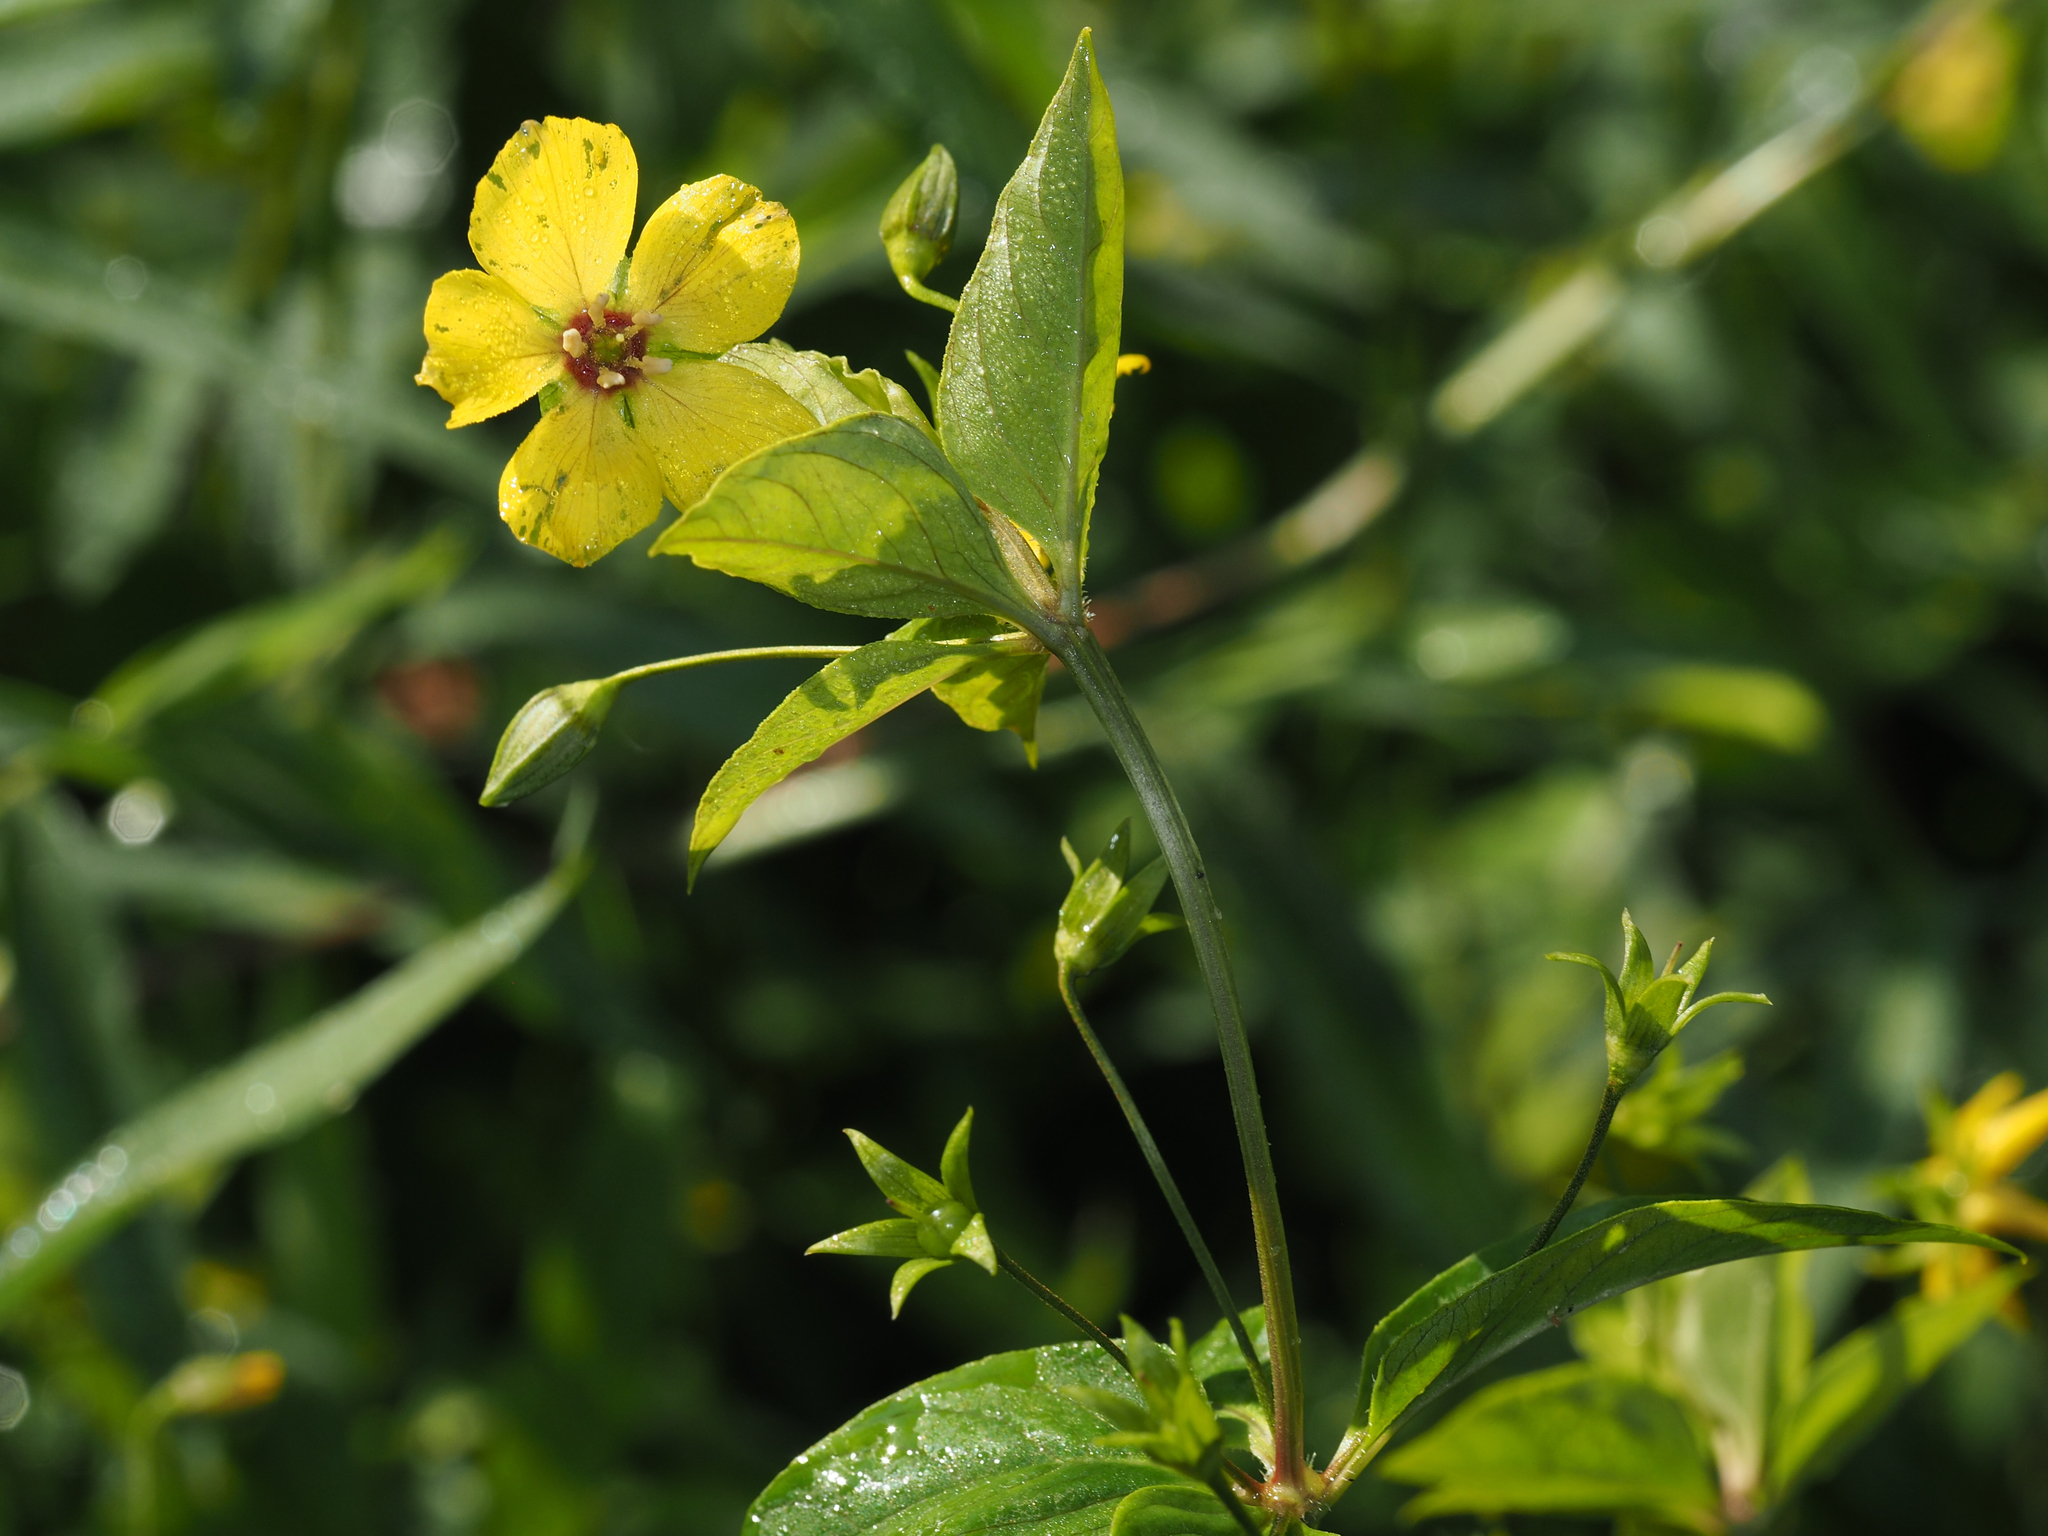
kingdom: Plantae
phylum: Tracheophyta
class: Magnoliopsida
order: Ericales
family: Primulaceae
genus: Lysimachia
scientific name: Lysimachia ciliata
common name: Fringed loosestrife
